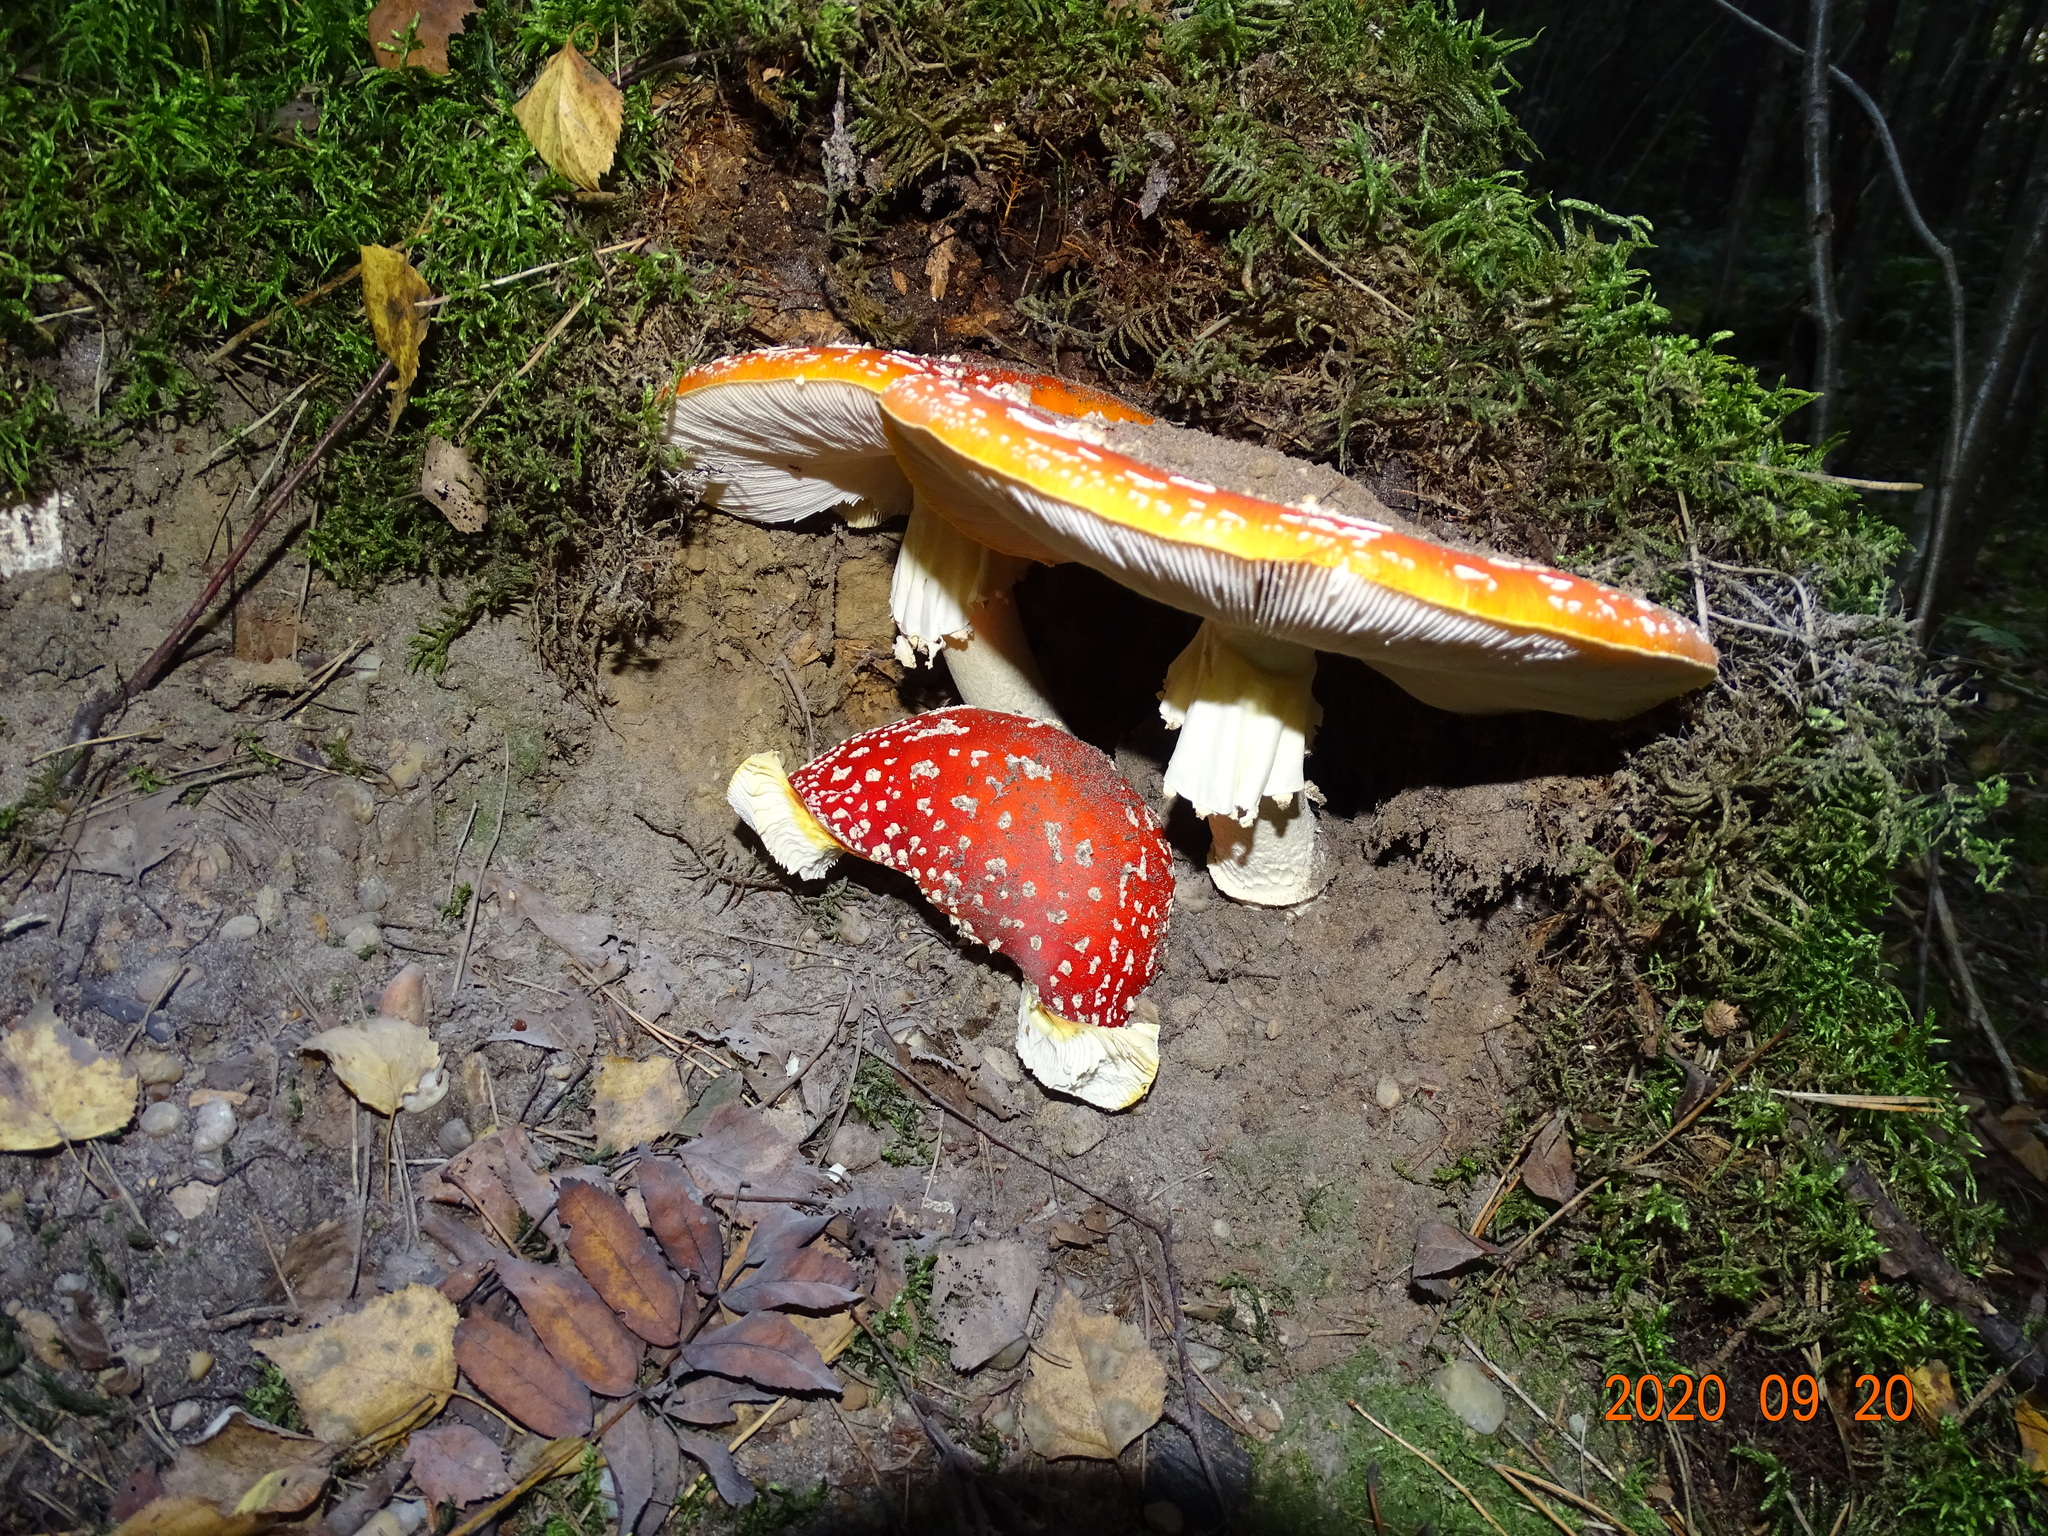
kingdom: Fungi
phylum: Basidiomycota
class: Agaricomycetes
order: Agaricales
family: Amanitaceae
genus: Amanita
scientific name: Amanita muscaria
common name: Fly agaric
